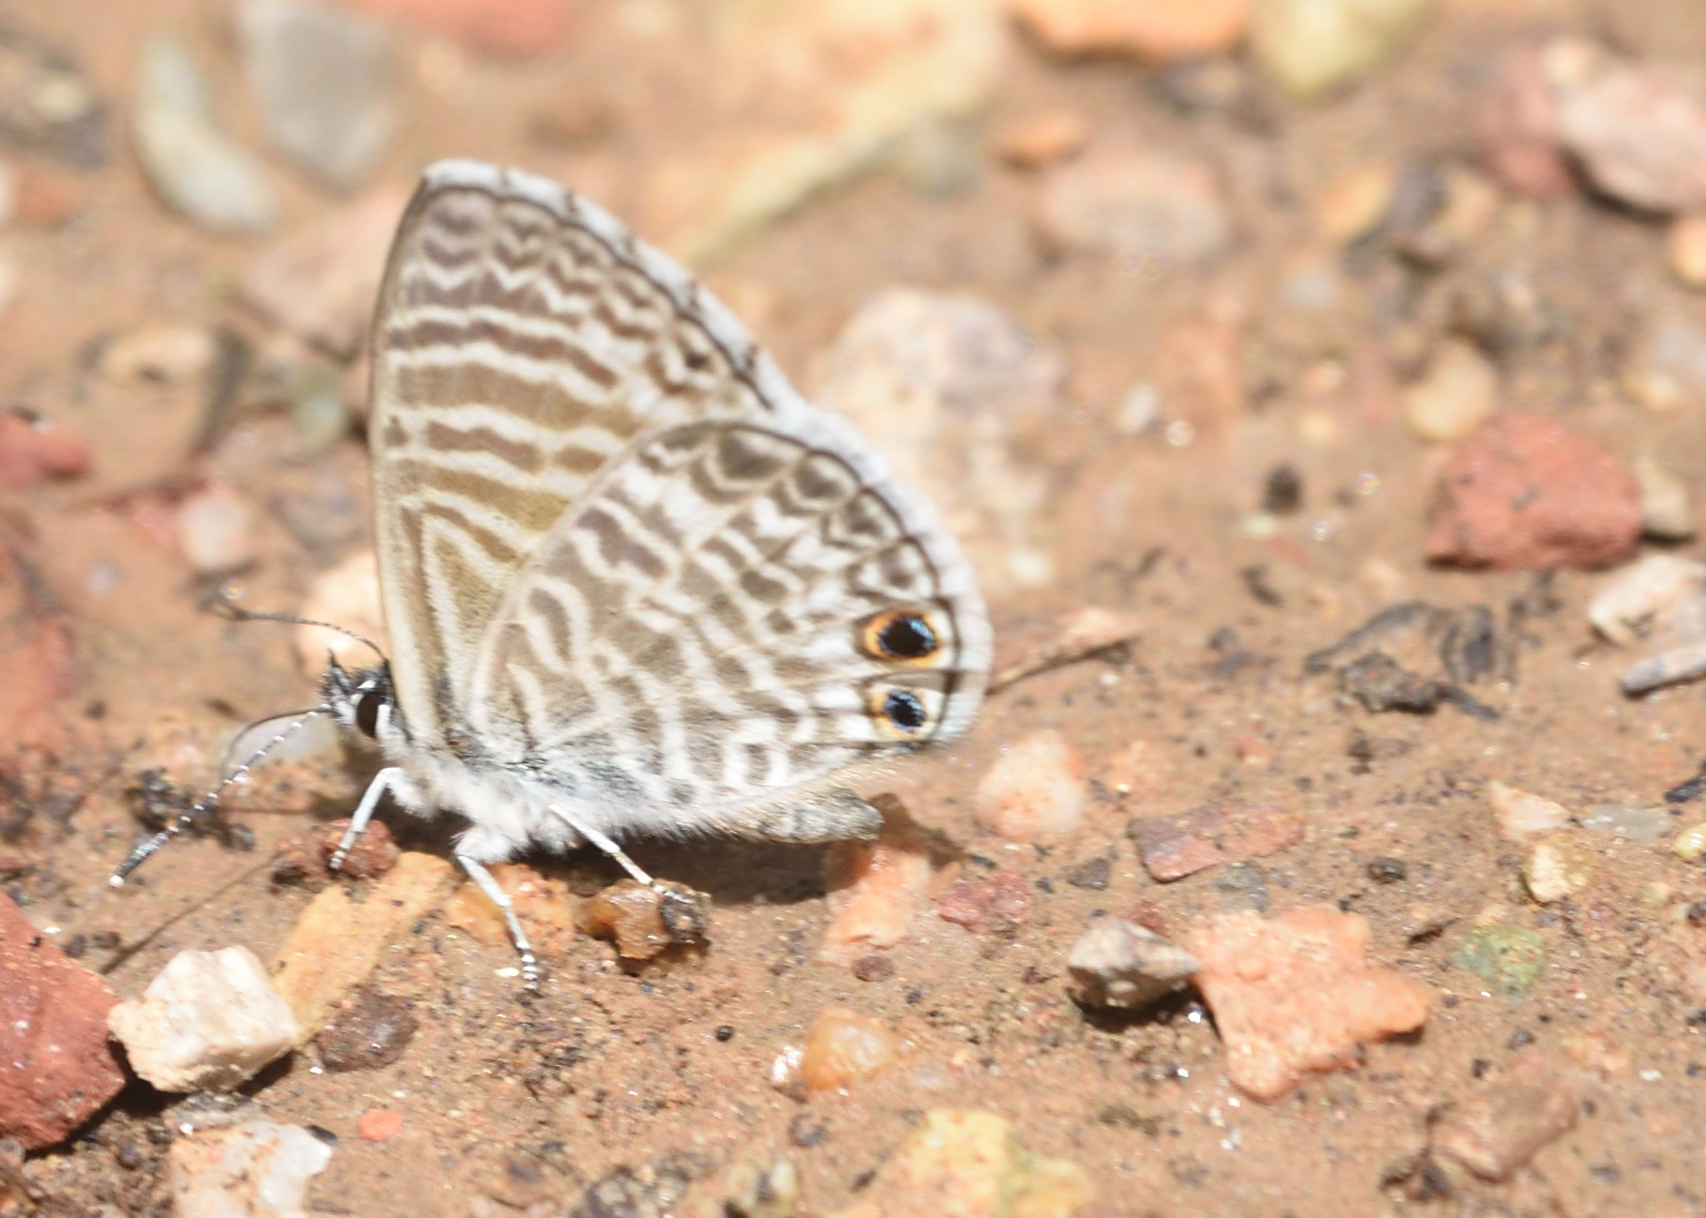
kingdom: Animalia
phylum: Arthropoda
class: Insecta
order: Lepidoptera
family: Lycaenidae
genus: Leptotes
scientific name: Leptotes marina
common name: Marine blue
